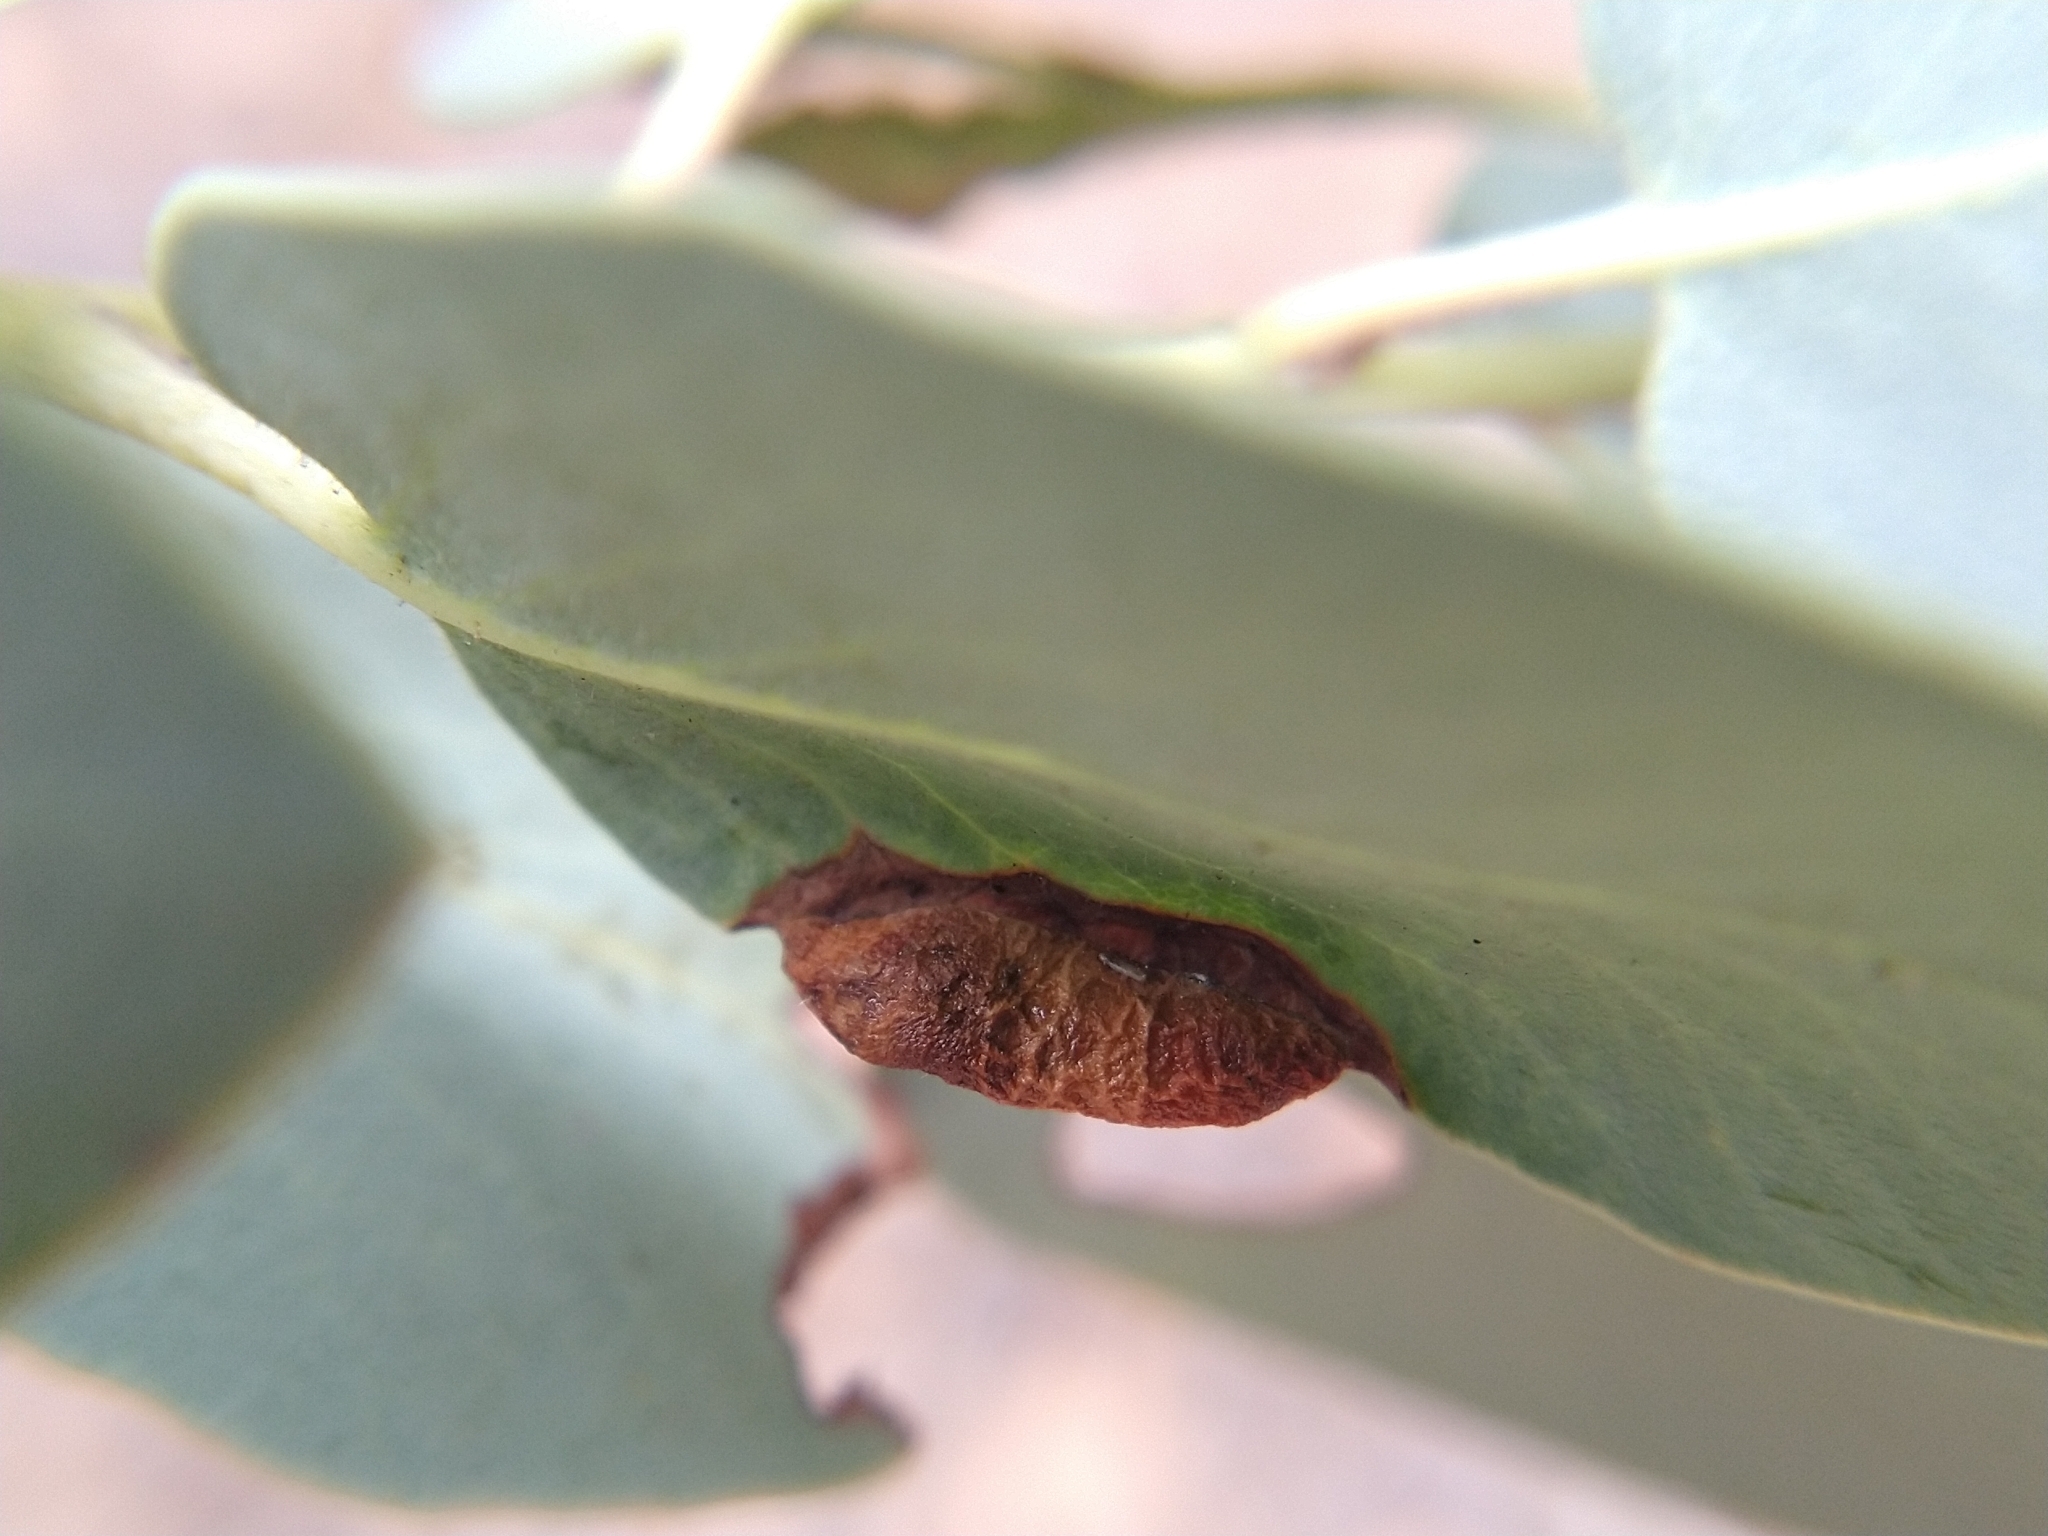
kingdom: Animalia
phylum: Arthropoda
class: Insecta
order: Hemiptera
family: Aphididae
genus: Tamalia
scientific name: Tamalia coweni
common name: Manzanita leafgall aphid
